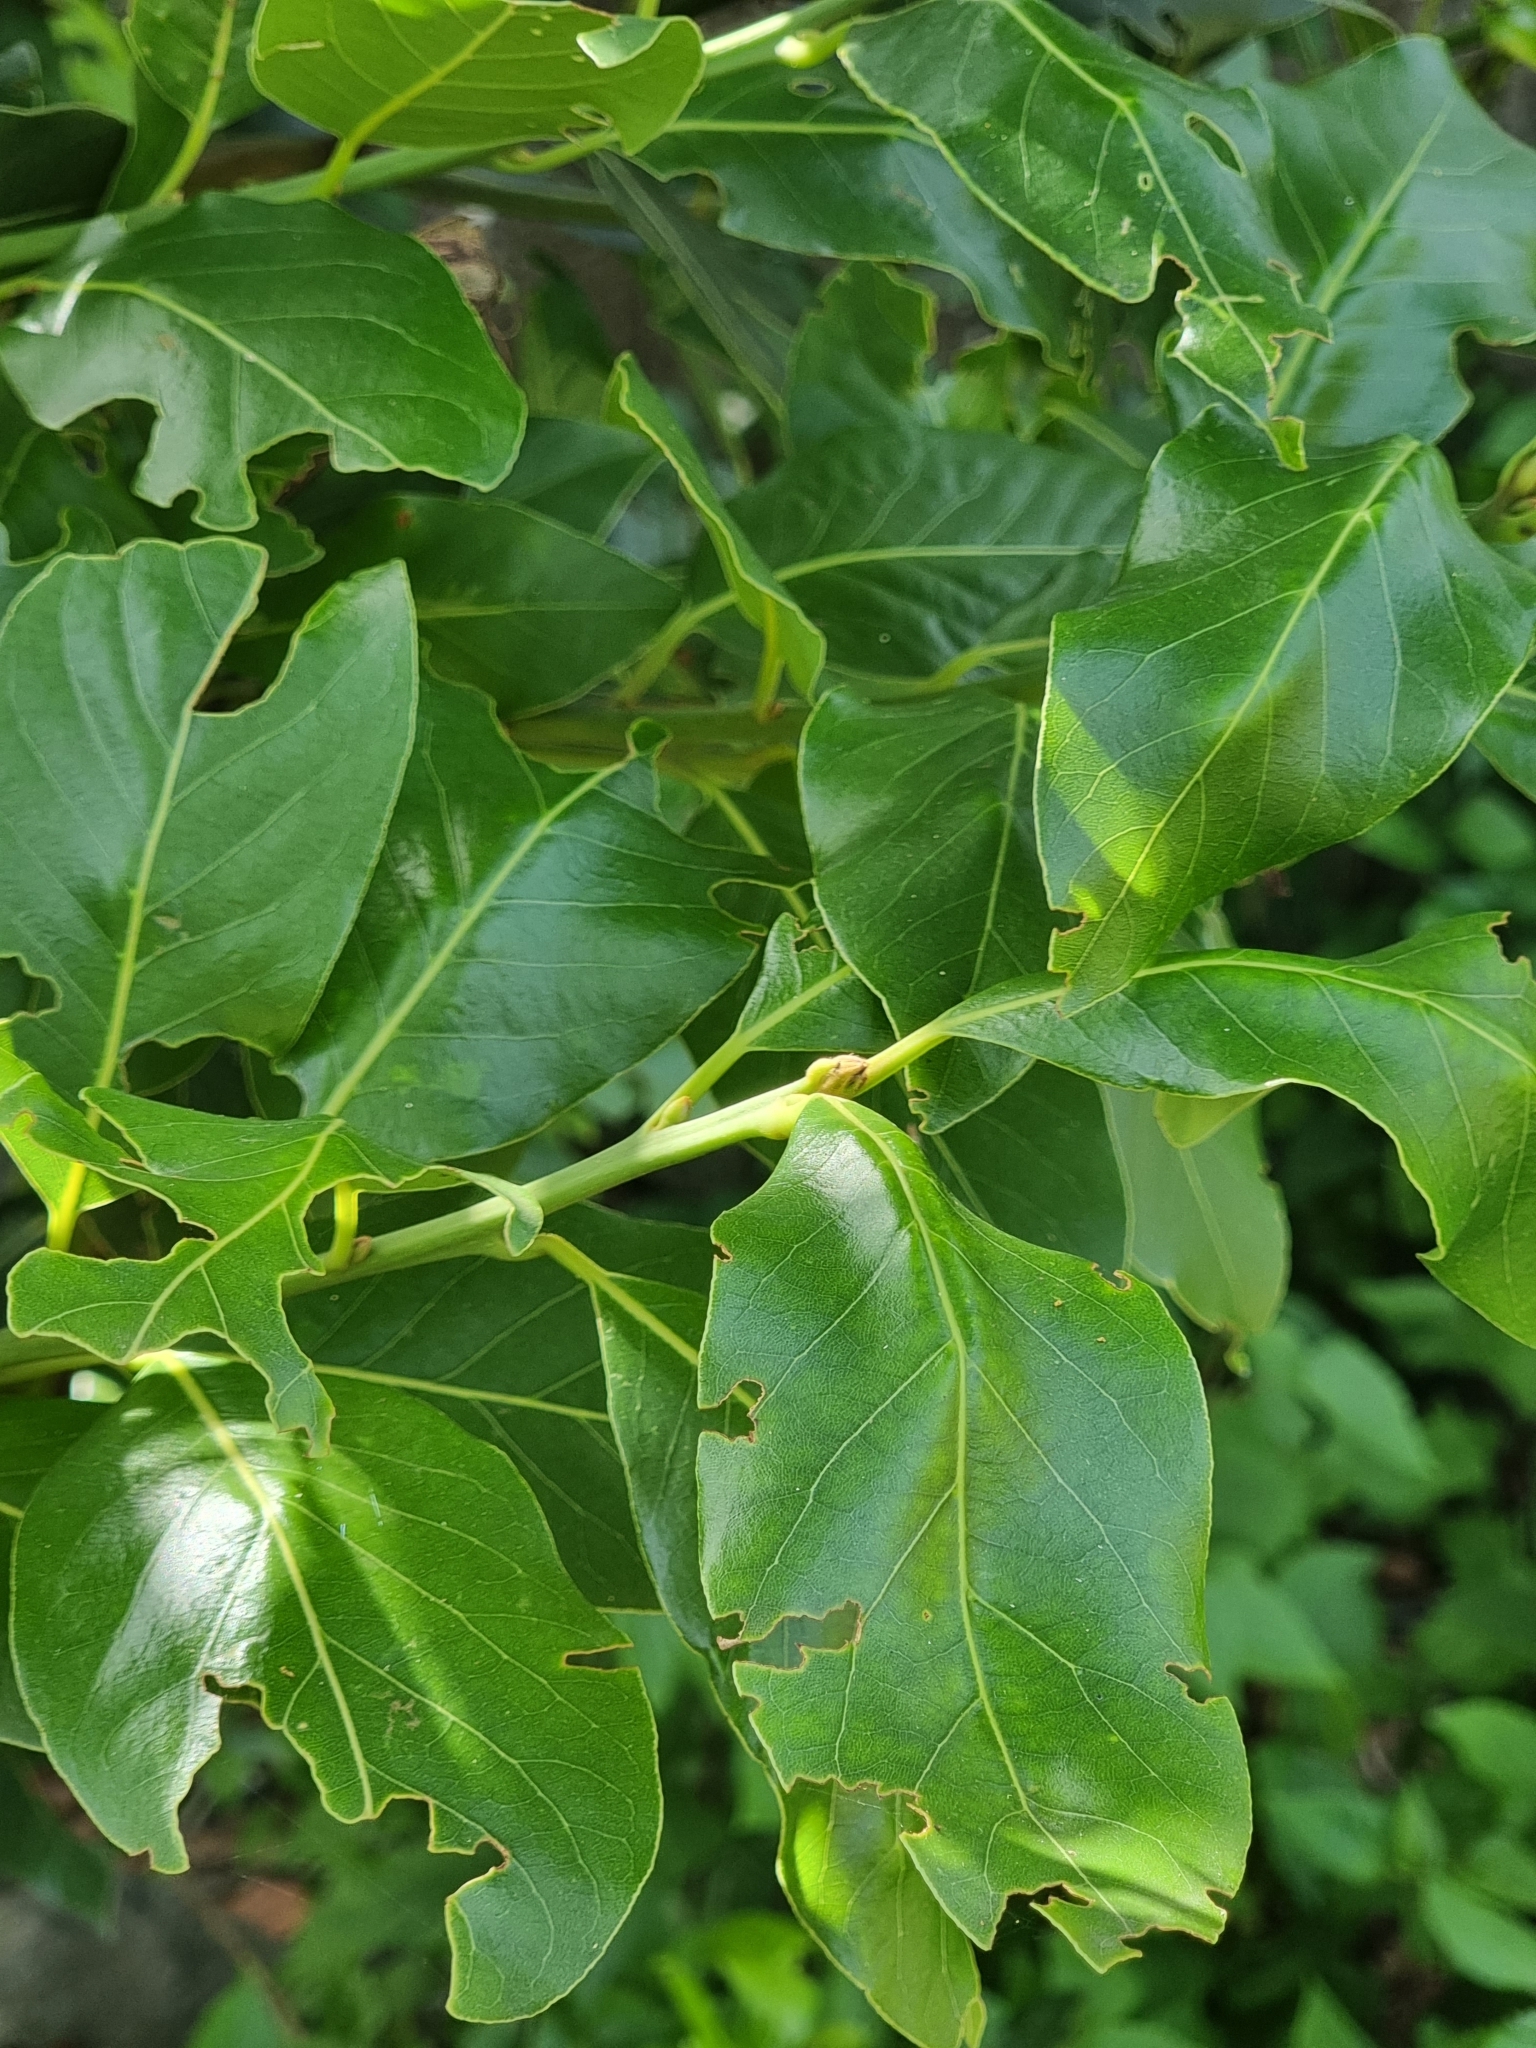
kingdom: Plantae
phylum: Tracheophyta
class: Magnoliopsida
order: Laurales
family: Lauraceae
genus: Laurus
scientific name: Laurus novocanariensis
